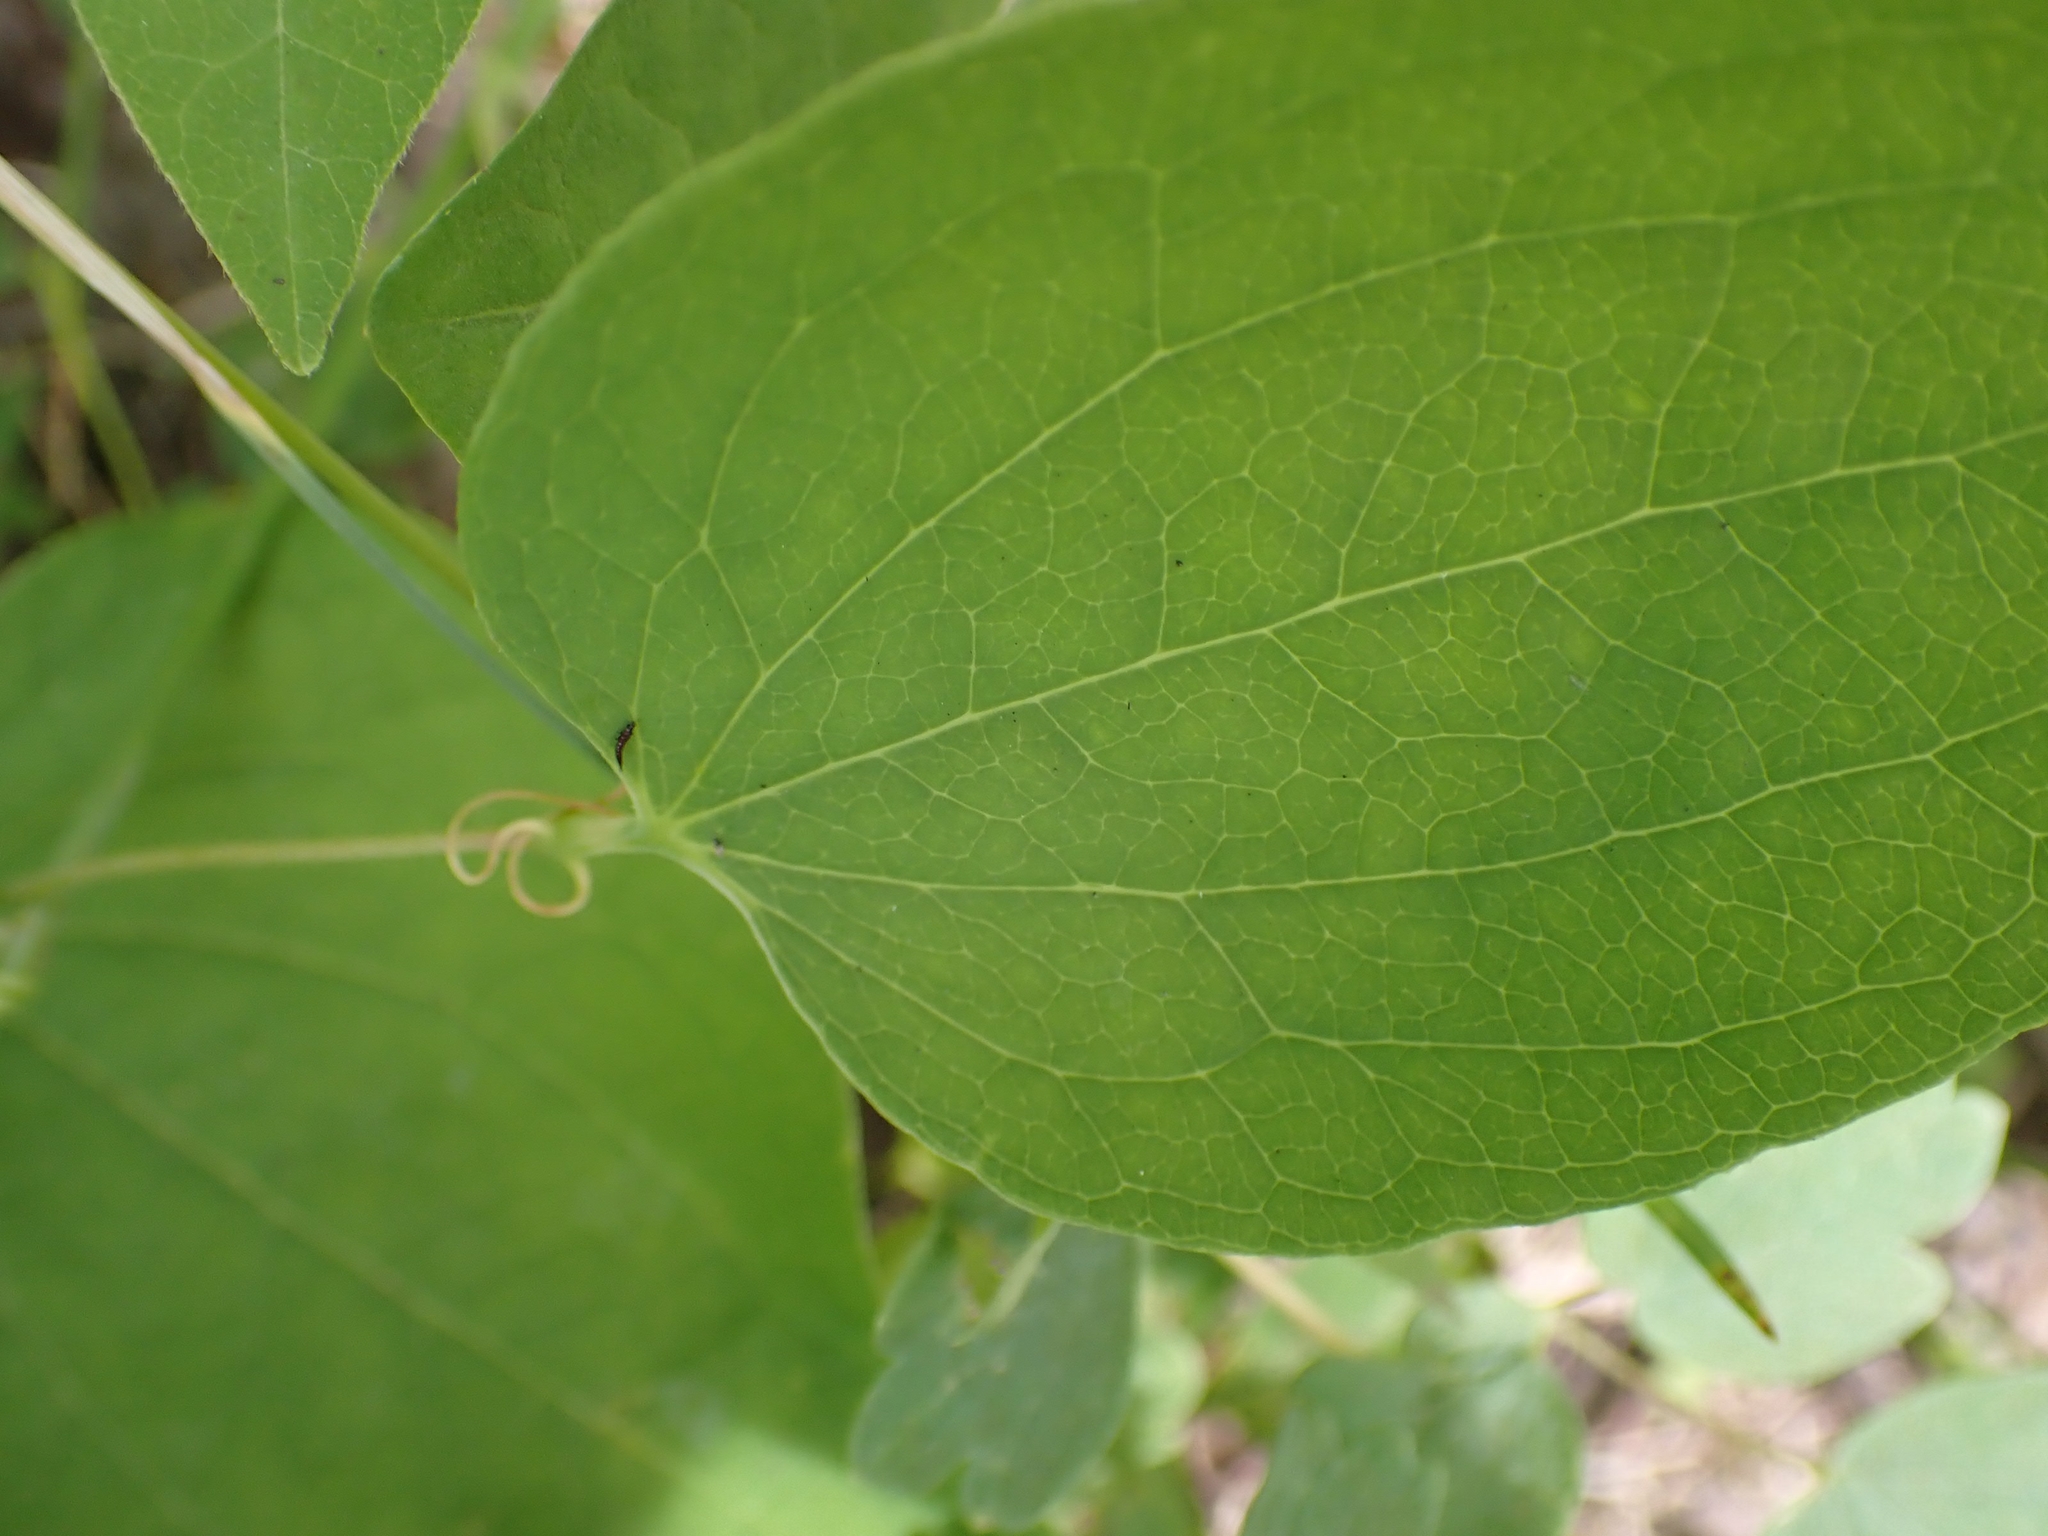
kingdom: Plantae
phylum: Tracheophyta
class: Liliopsida
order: Liliales
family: Smilacaceae
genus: Smilax
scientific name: Smilax lasioneura
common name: Blue ridge carrionflower
